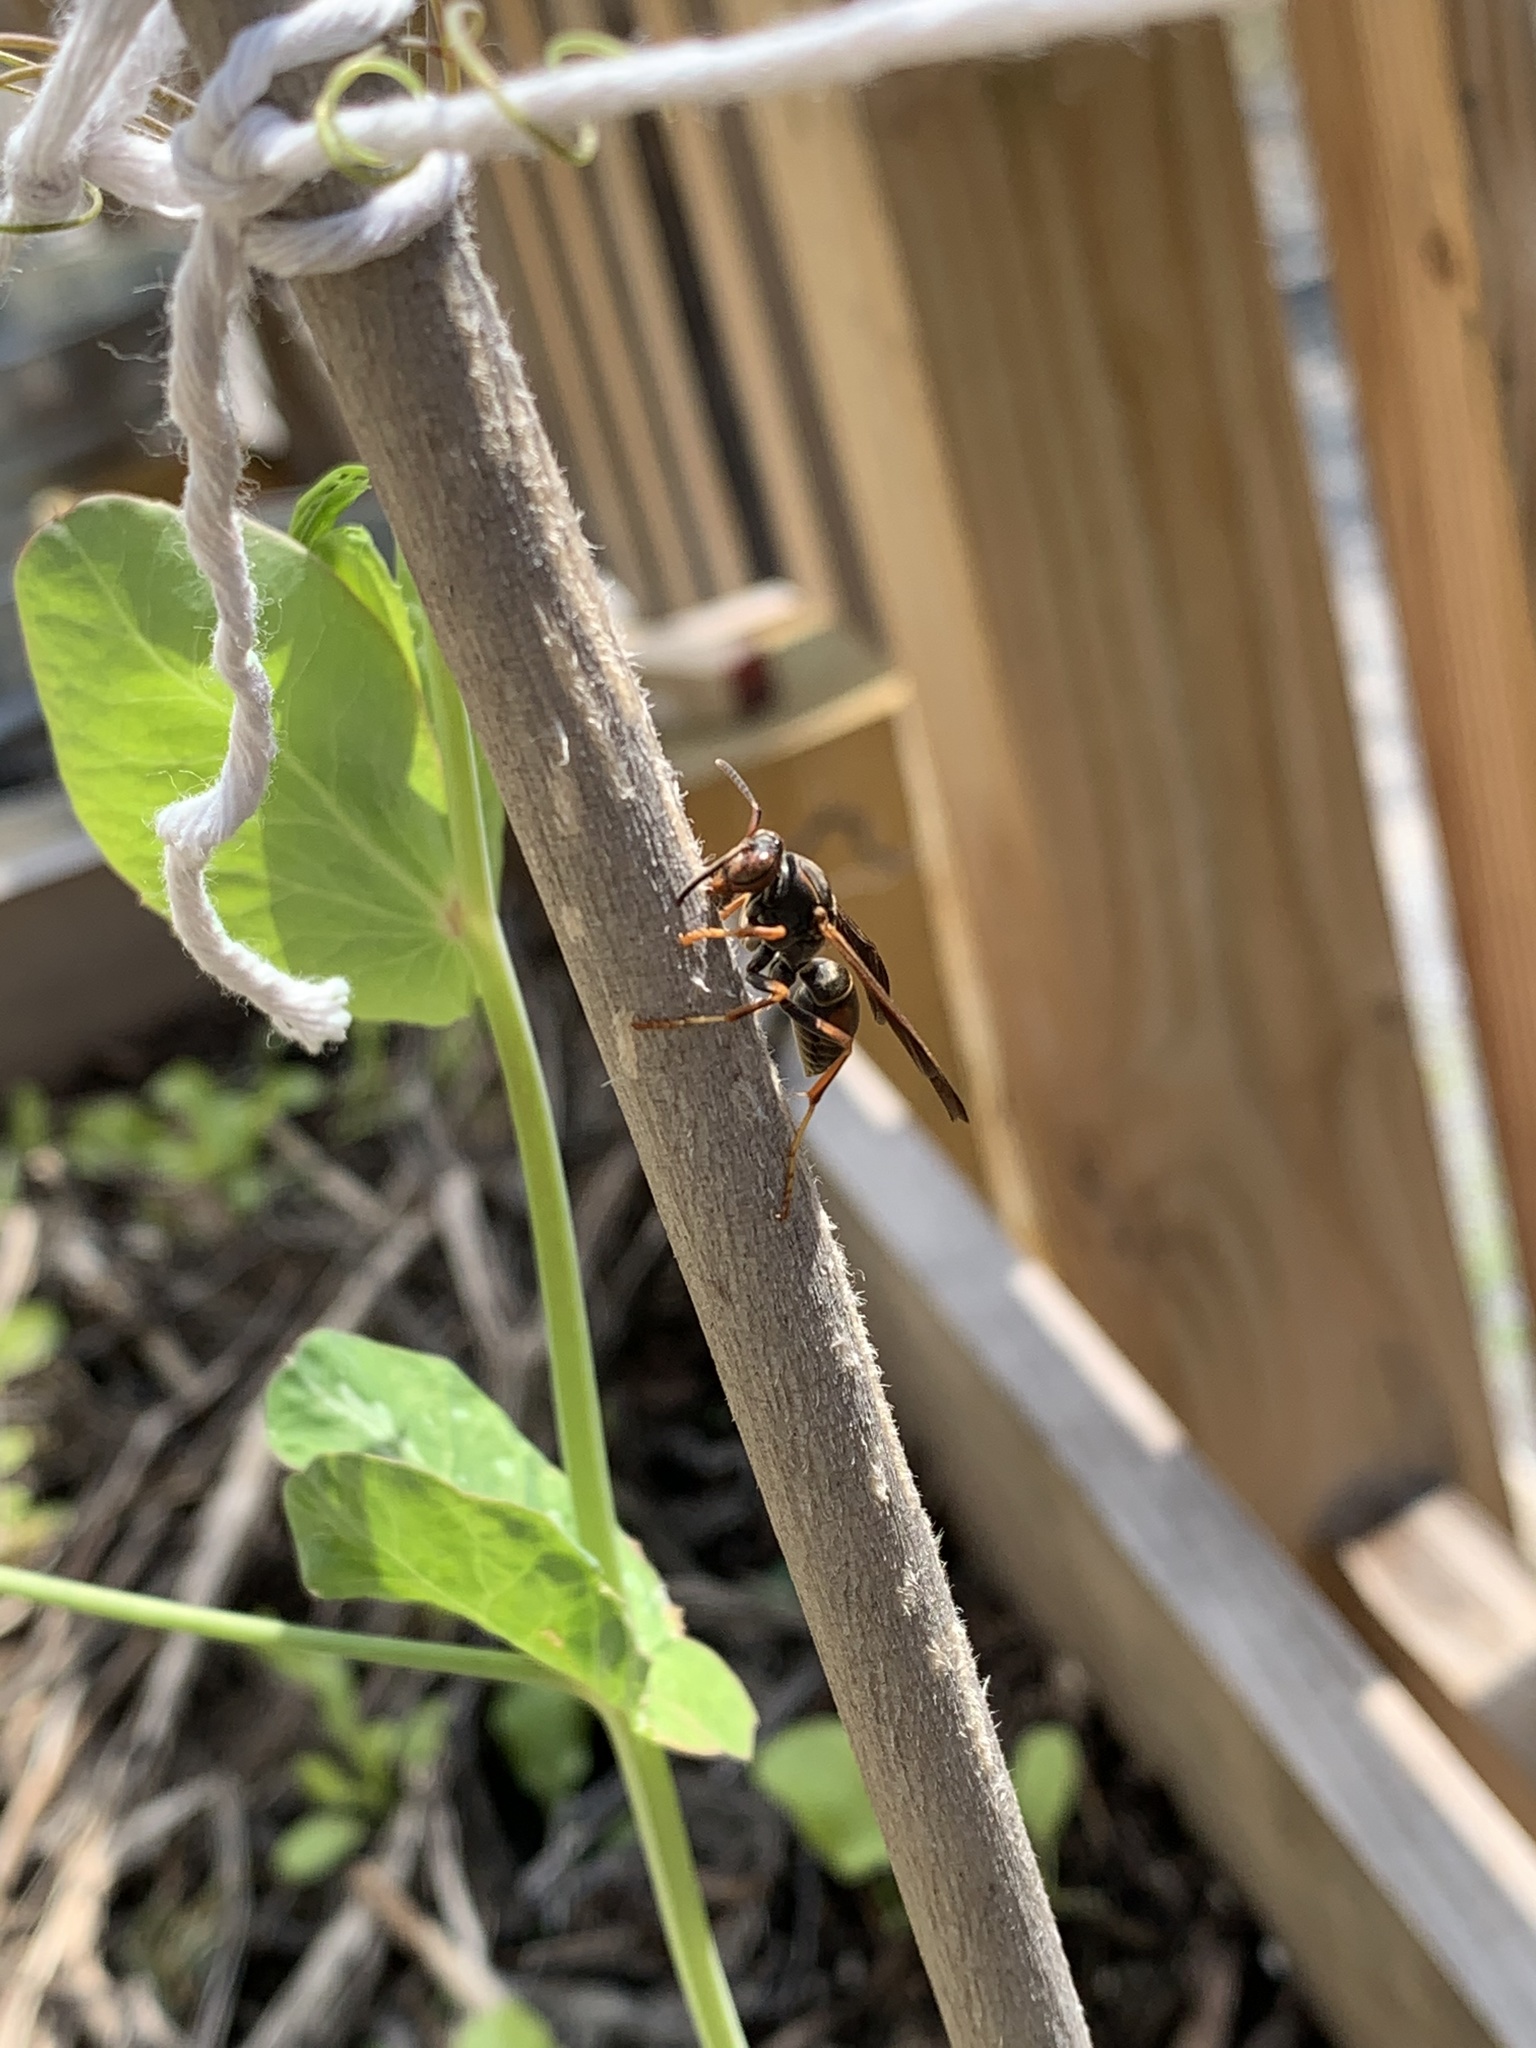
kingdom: Animalia
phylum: Arthropoda
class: Insecta
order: Hymenoptera
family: Eumenidae
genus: Polistes
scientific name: Polistes fuscatus
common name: Dark paper wasp
